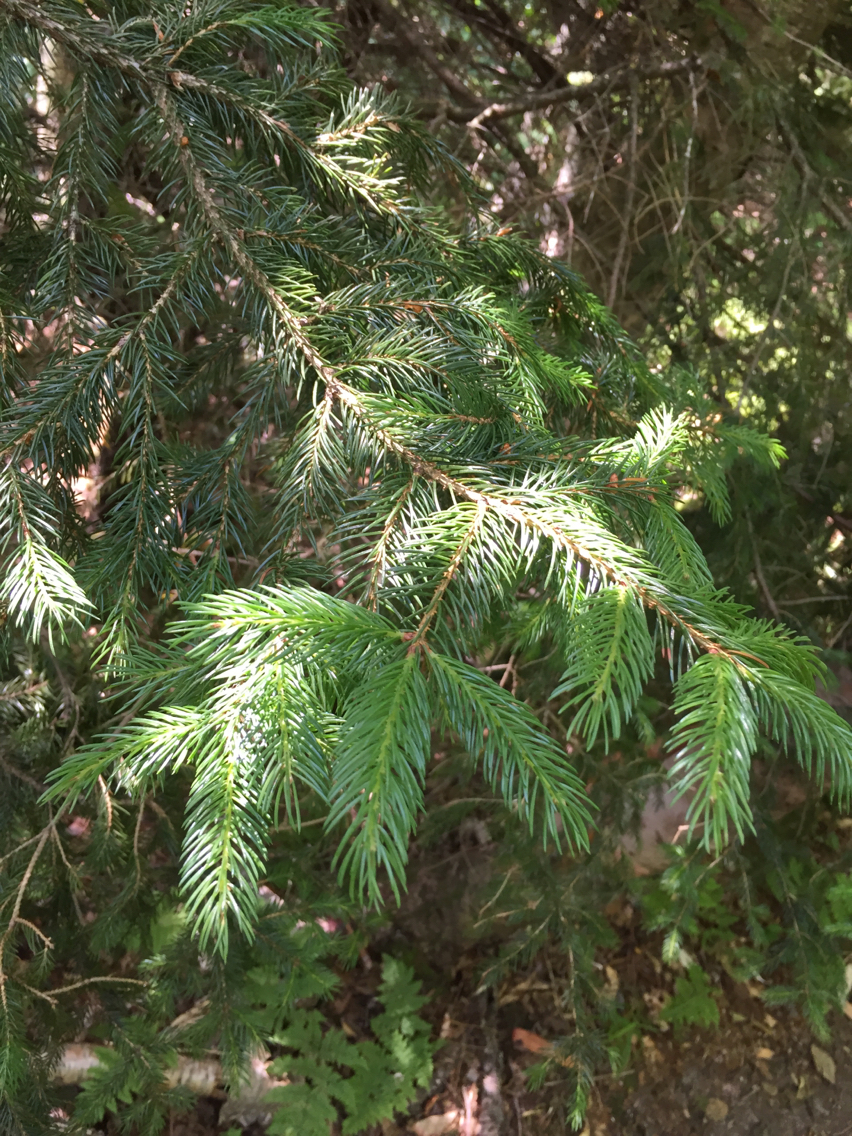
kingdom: Plantae
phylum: Tracheophyta
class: Pinopsida
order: Pinales
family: Pinaceae
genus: Picea
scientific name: Picea rubens
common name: Red spruce
